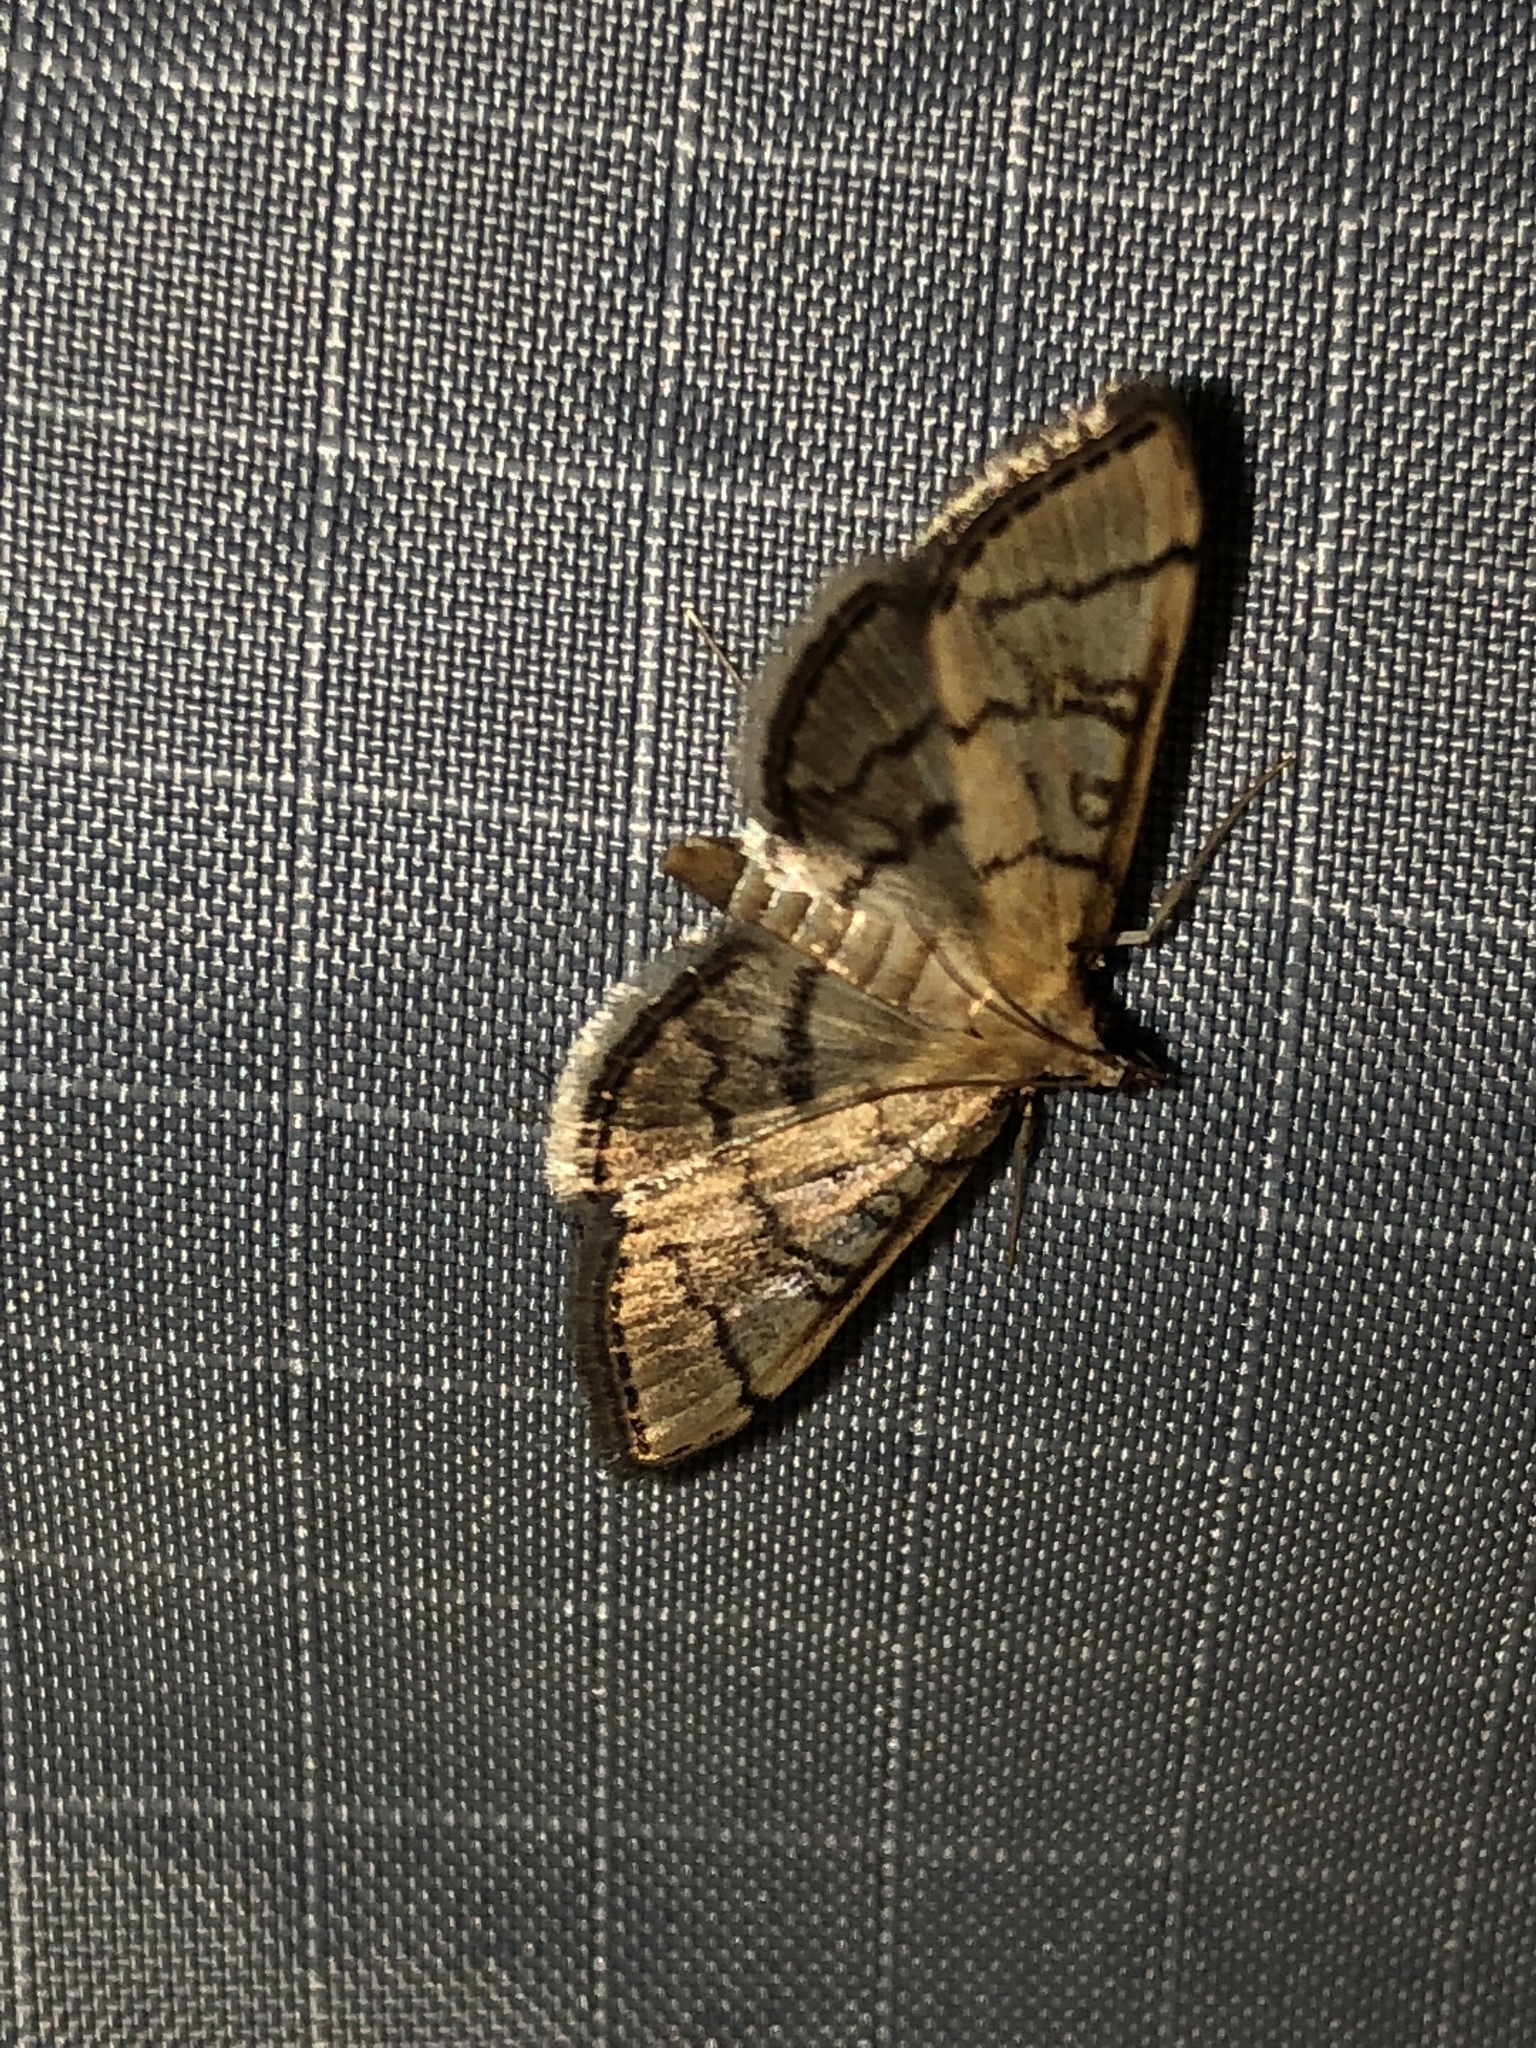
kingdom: Animalia
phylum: Arthropoda
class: Insecta
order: Lepidoptera
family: Crambidae
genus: Lamprosema
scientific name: Lamprosema Blepharomastix ranalis
